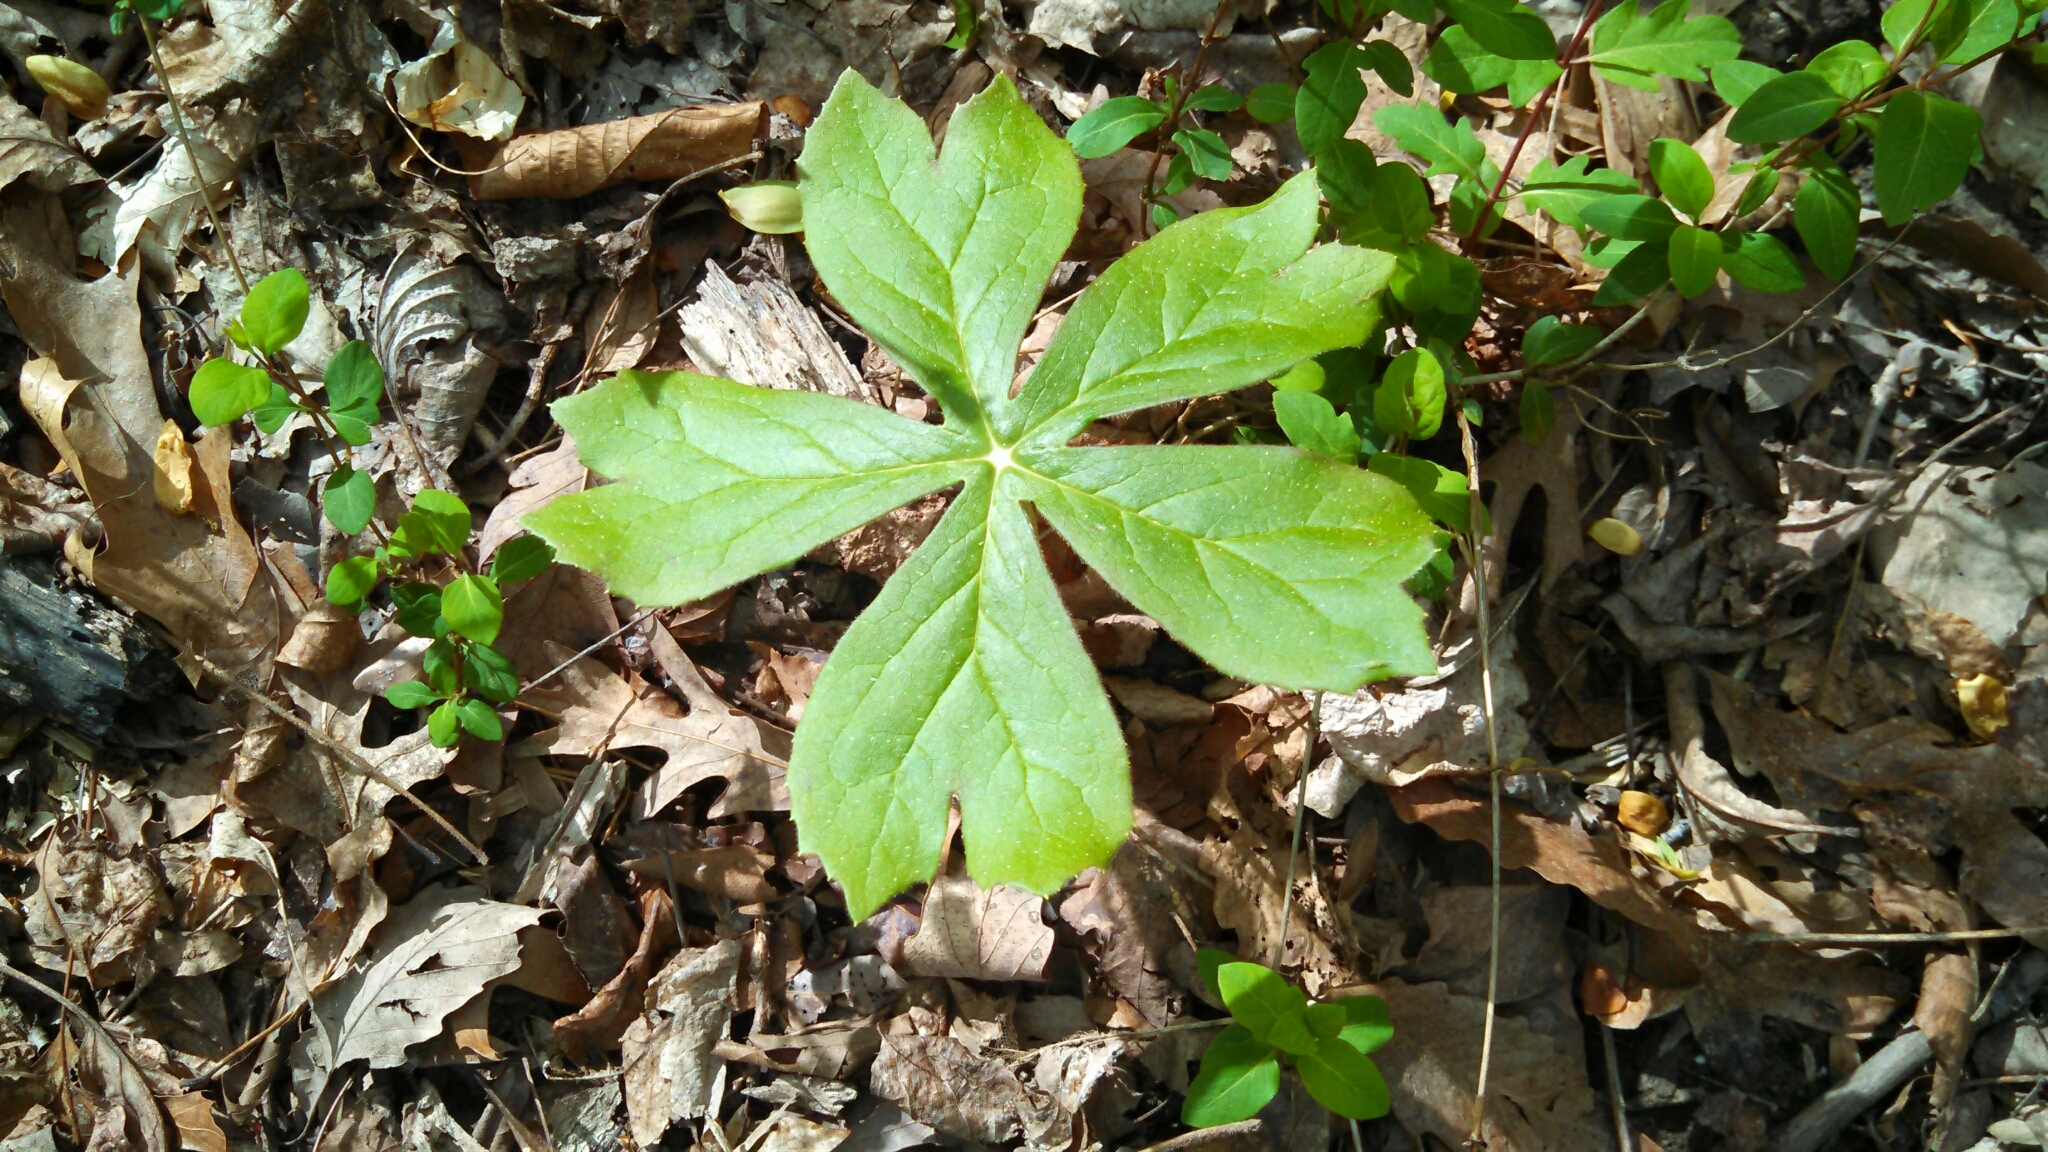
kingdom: Plantae
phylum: Tracheophyta
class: Magnoliopsida
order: Ranunculales
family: Berberidaceae
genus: Podophyllum
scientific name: Podophyllum peltatum
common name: Wild mandrake
